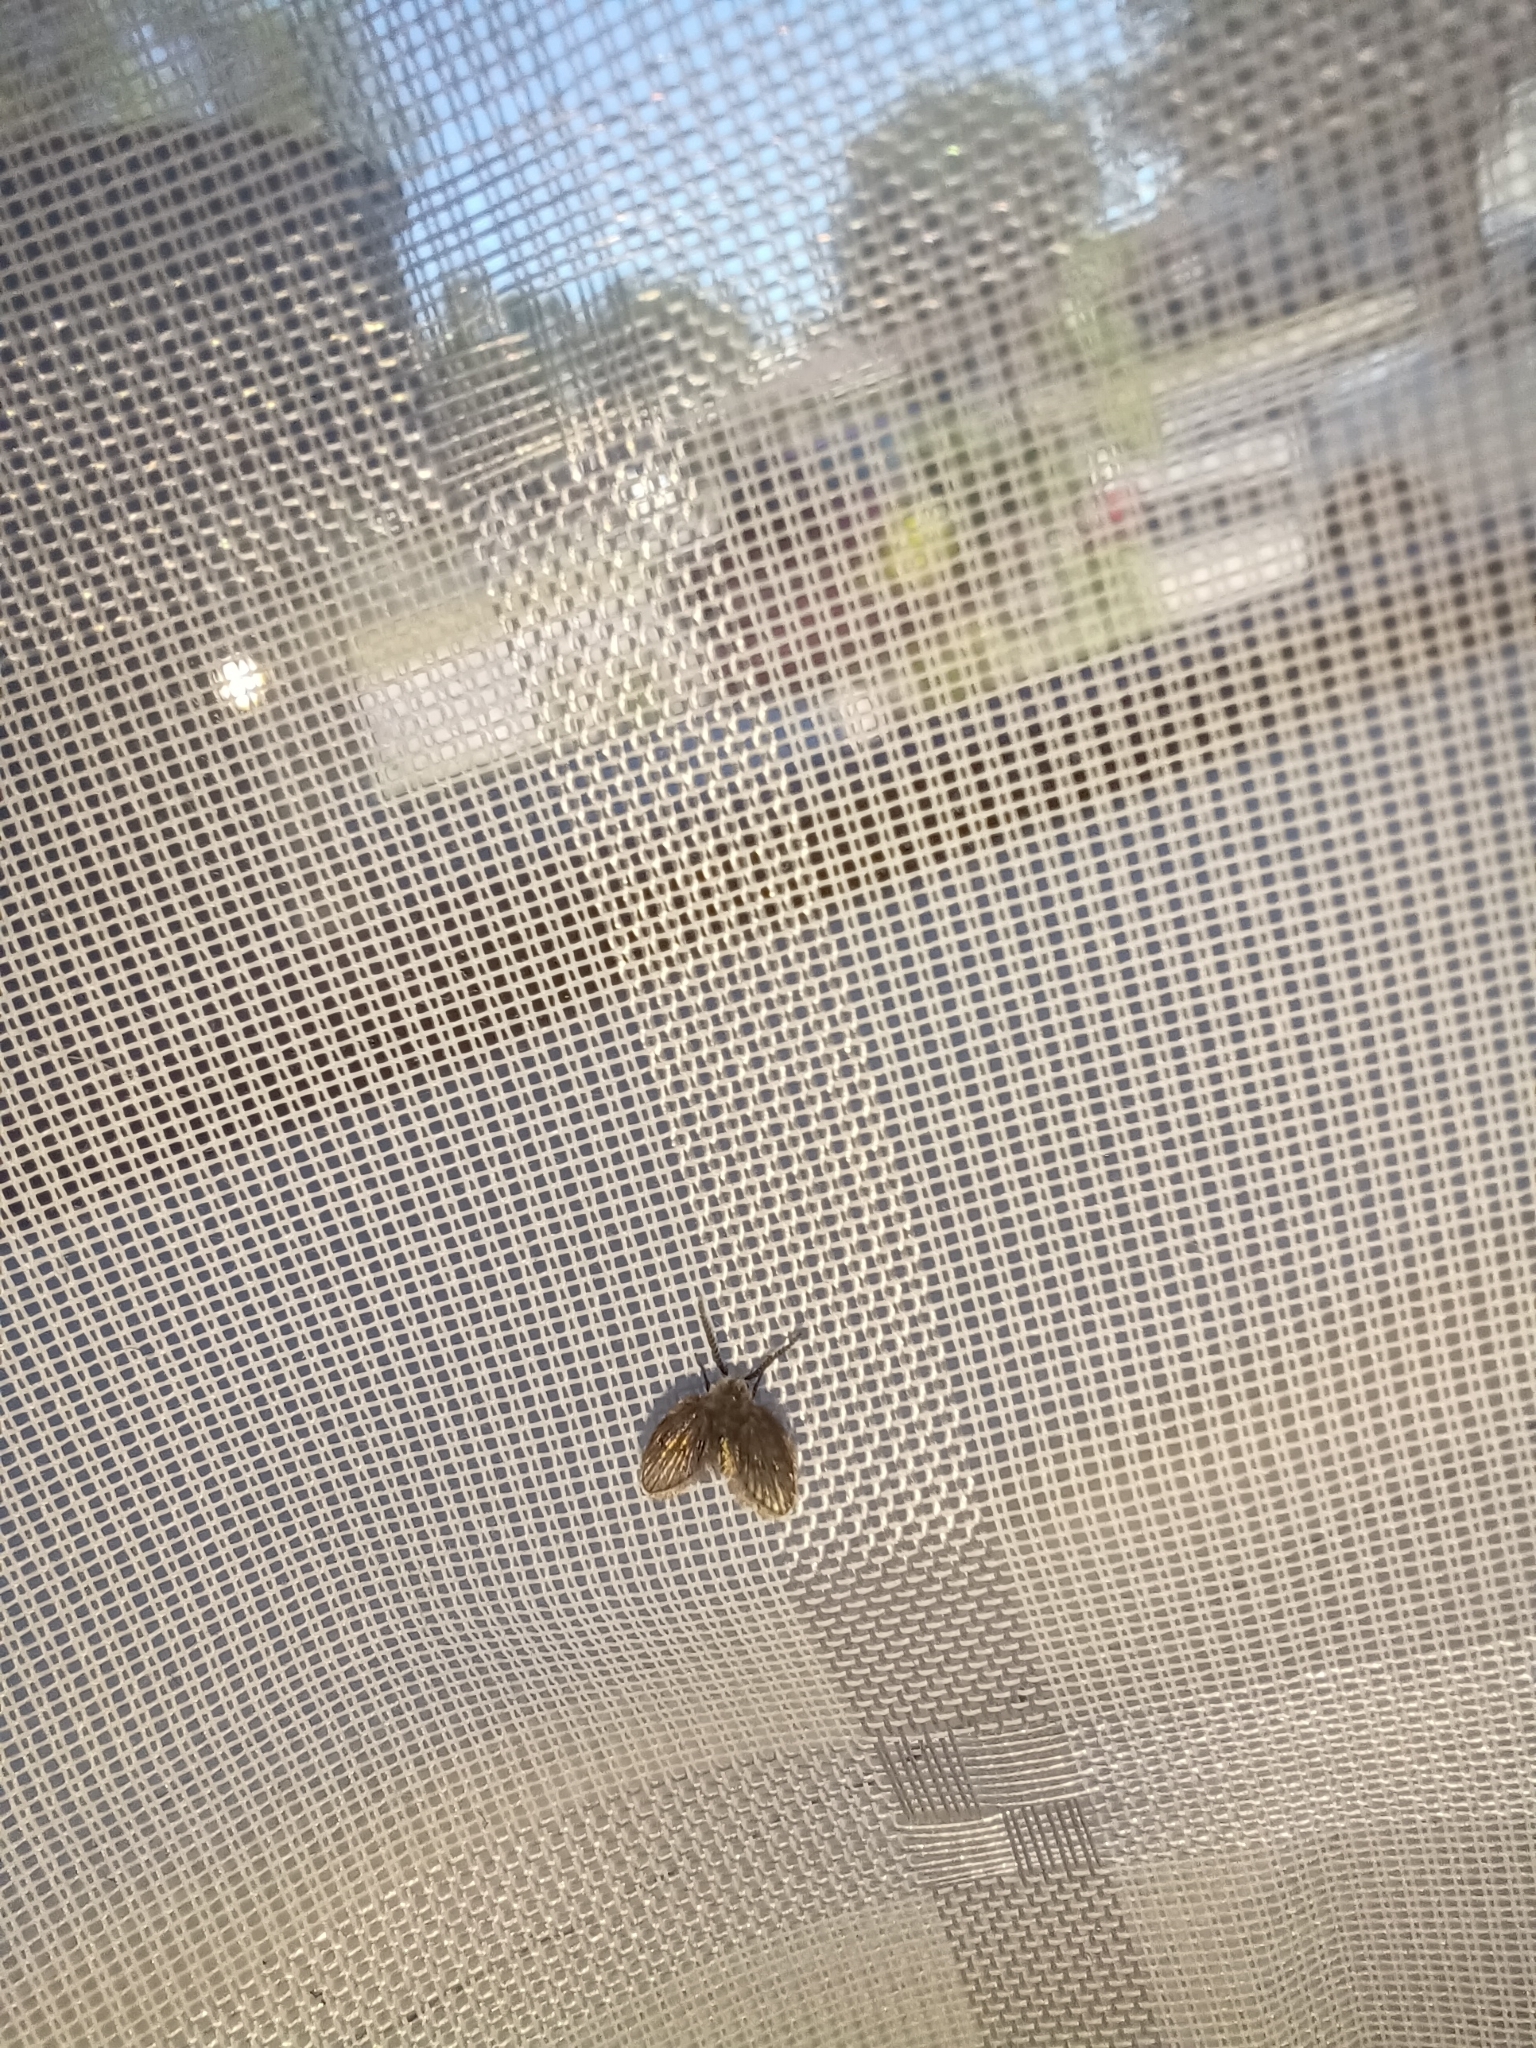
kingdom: Animalia
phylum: Arthropoda
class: Insecta
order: Diptera
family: Psychodidae
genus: Clogmia
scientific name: Clogmia albipunctatus
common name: White-spotted moth fly
